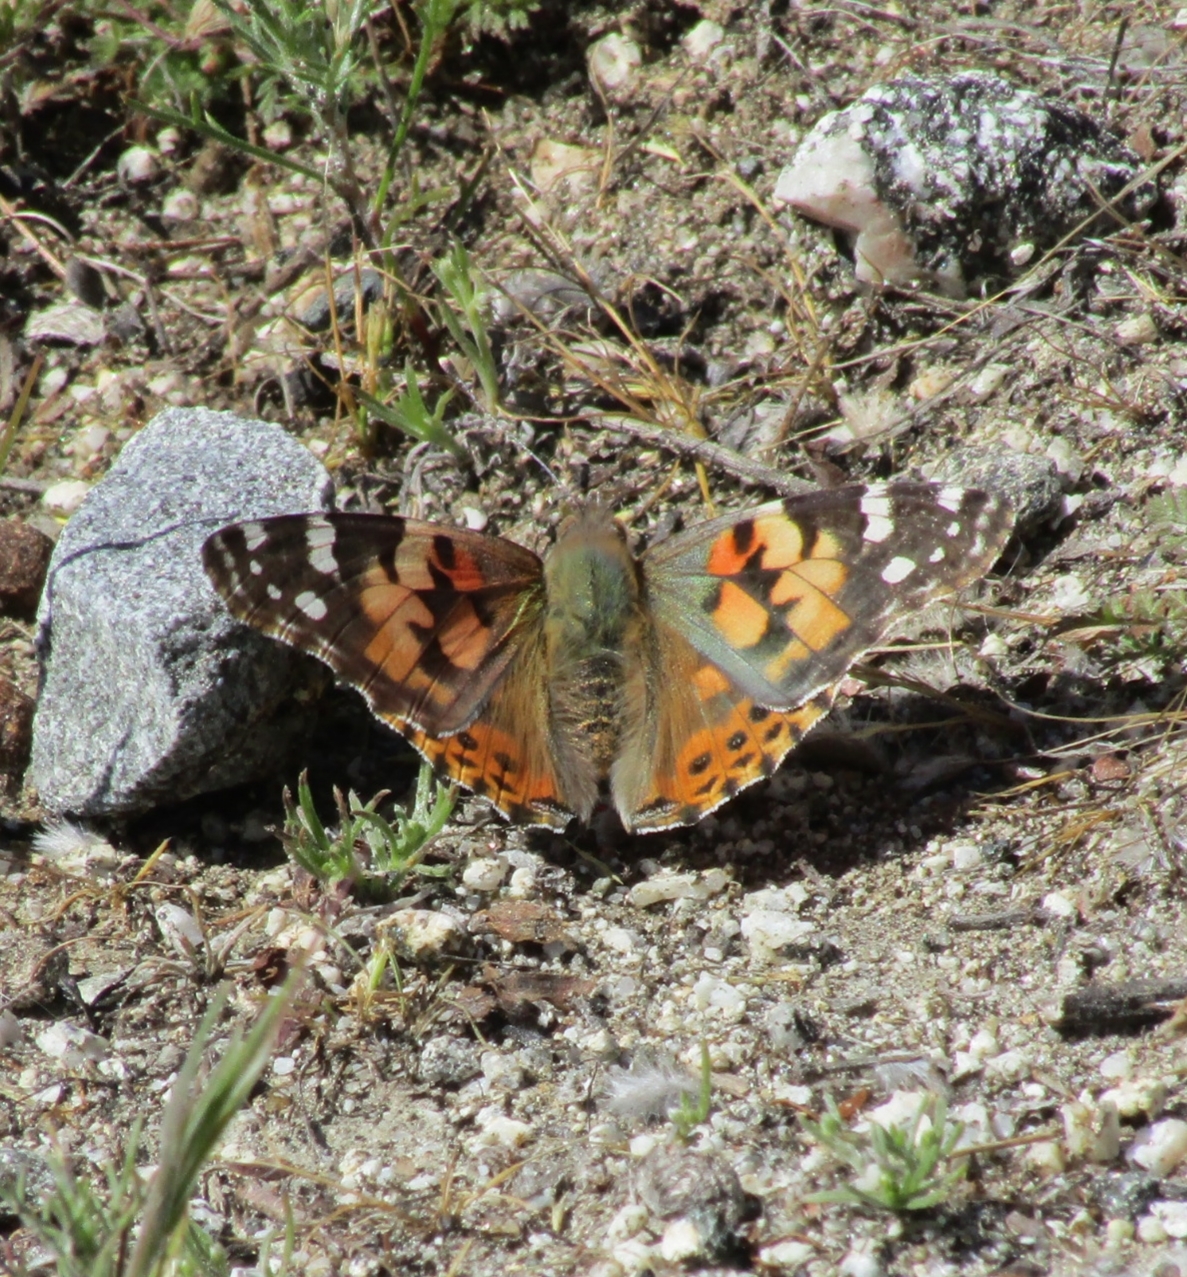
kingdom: Animalia
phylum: Arthropoda
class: Insecta
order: Lepidoptera
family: Nymphalidae
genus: Vanessa
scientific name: Vanessa cardui
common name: Painted lady
